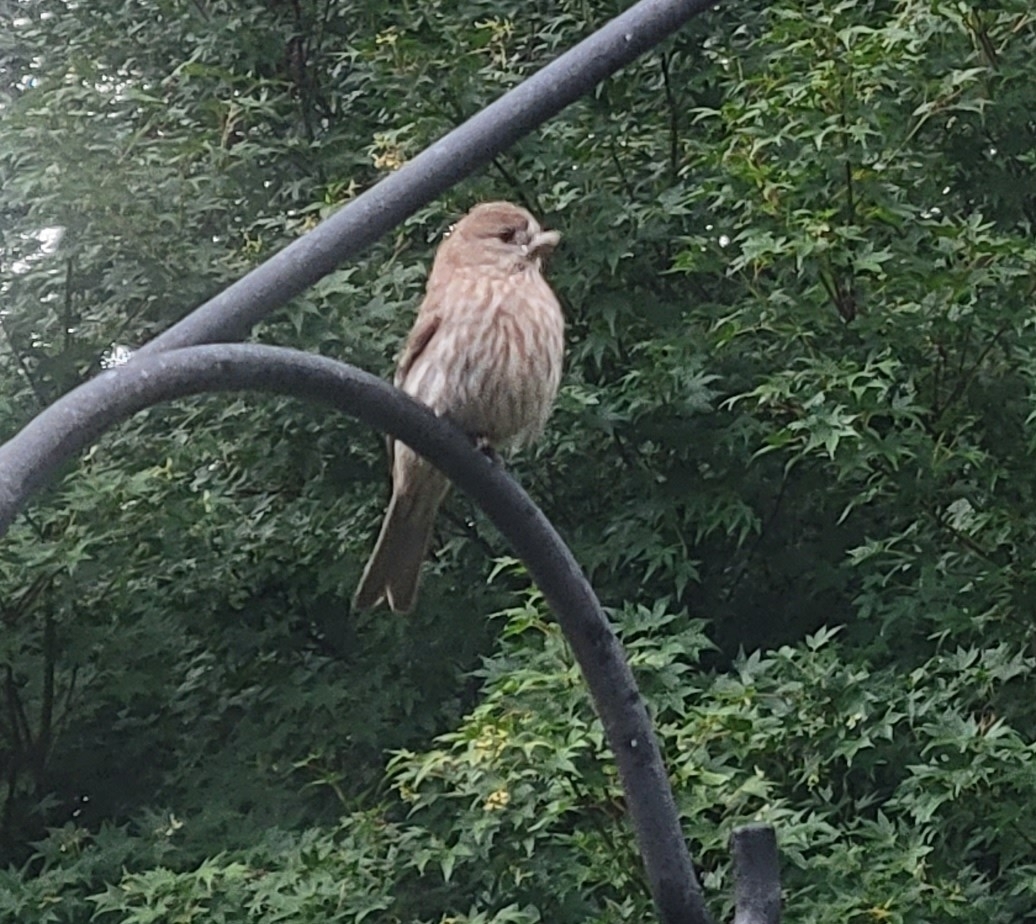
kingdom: Animalia
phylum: Chordata
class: Aves
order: Passeriformes
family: Fringillidae
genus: Haemorhous
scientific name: Haemorhous mexicanus
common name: House finch
